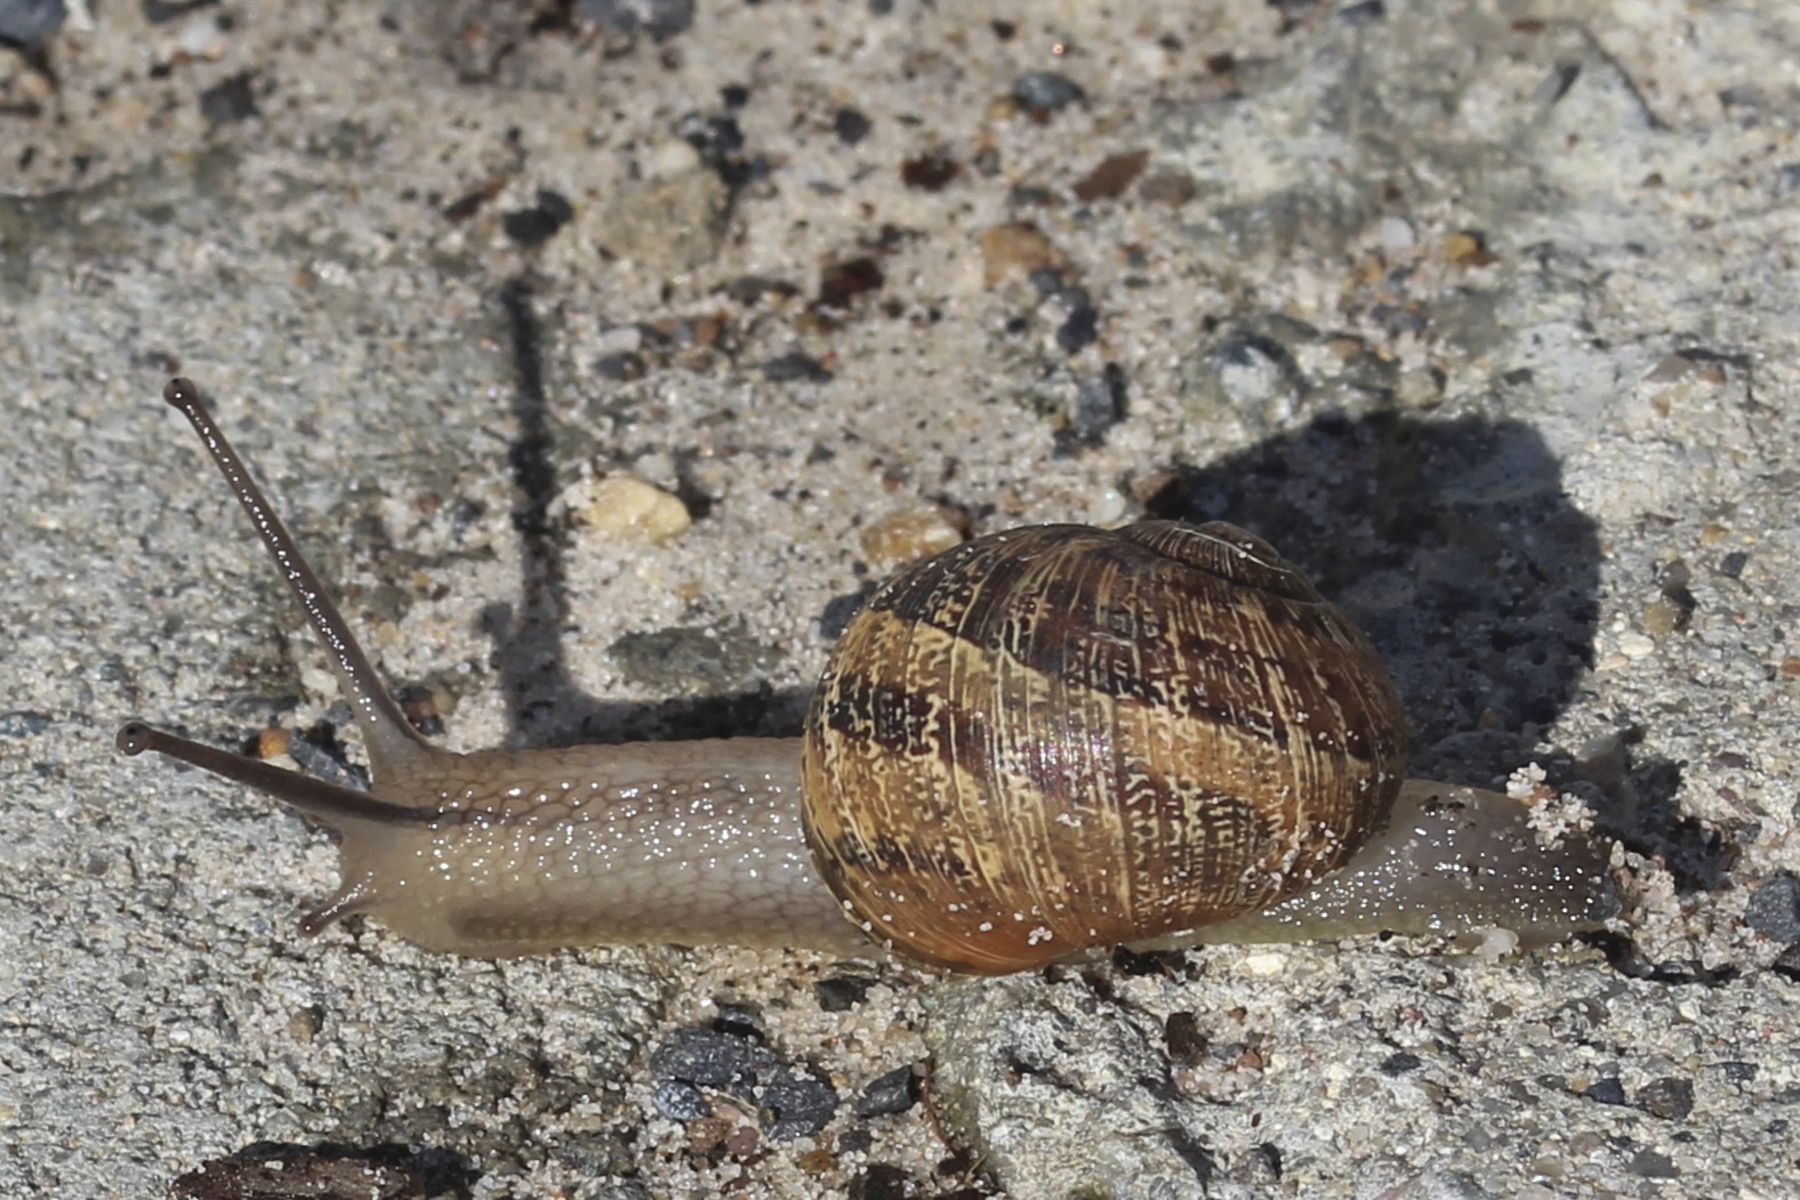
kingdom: Animalia
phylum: Mollusca
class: Gastropoda
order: Stylommatophora
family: Helicidae
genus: Cornu
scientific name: Cornu aspersum
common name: Brown garden snail
